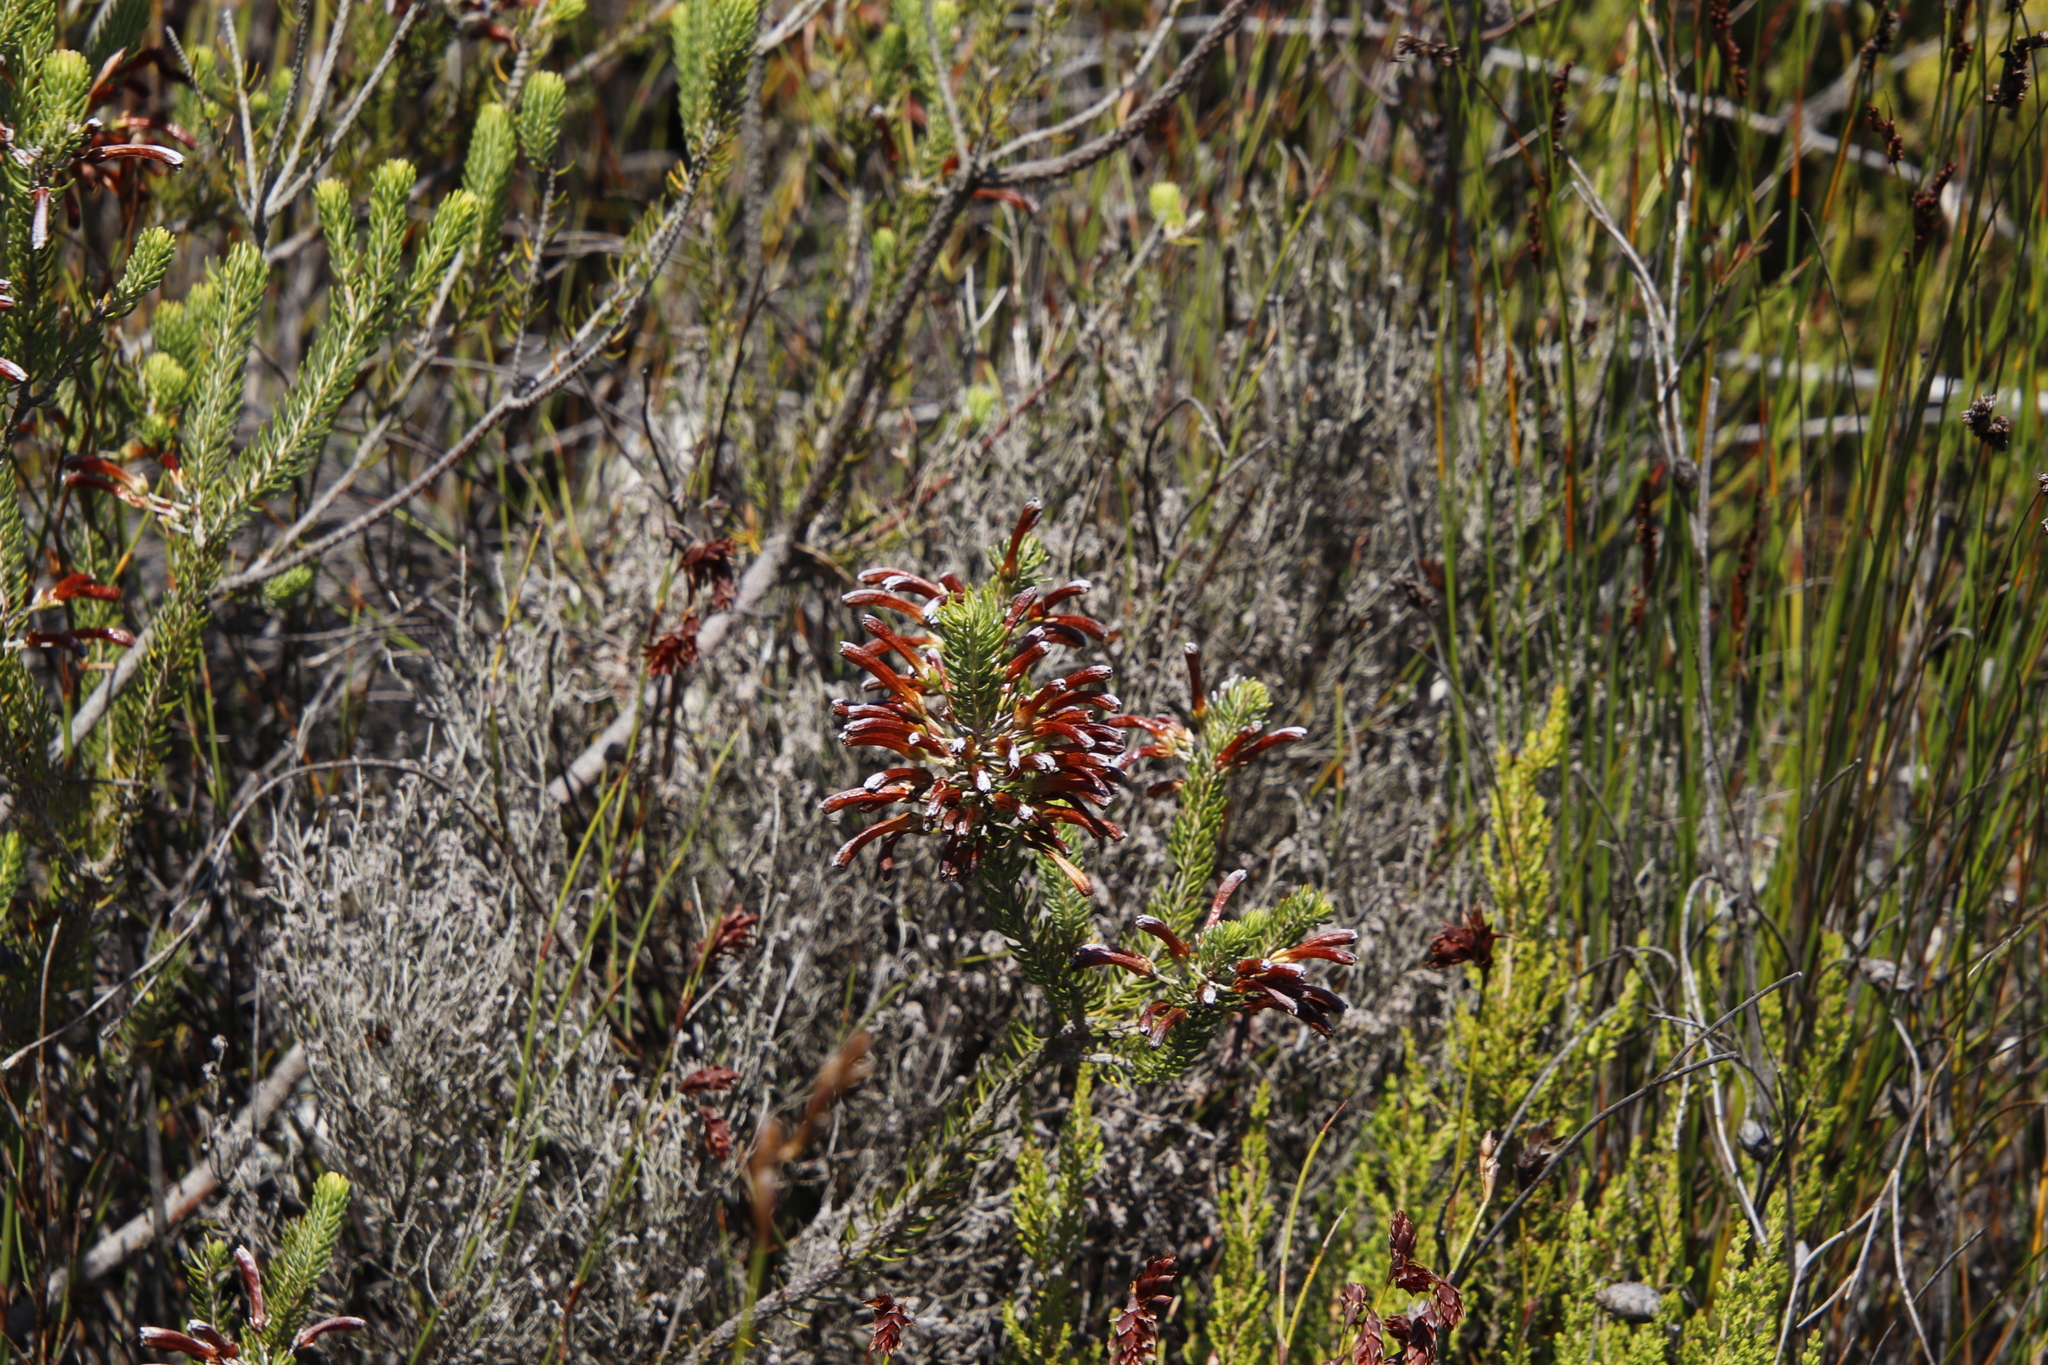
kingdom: Plantae
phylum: Tracheophyta
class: Magnoliopsida
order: Ericales
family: Ericaceae
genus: Erica
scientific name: Erica thomae
